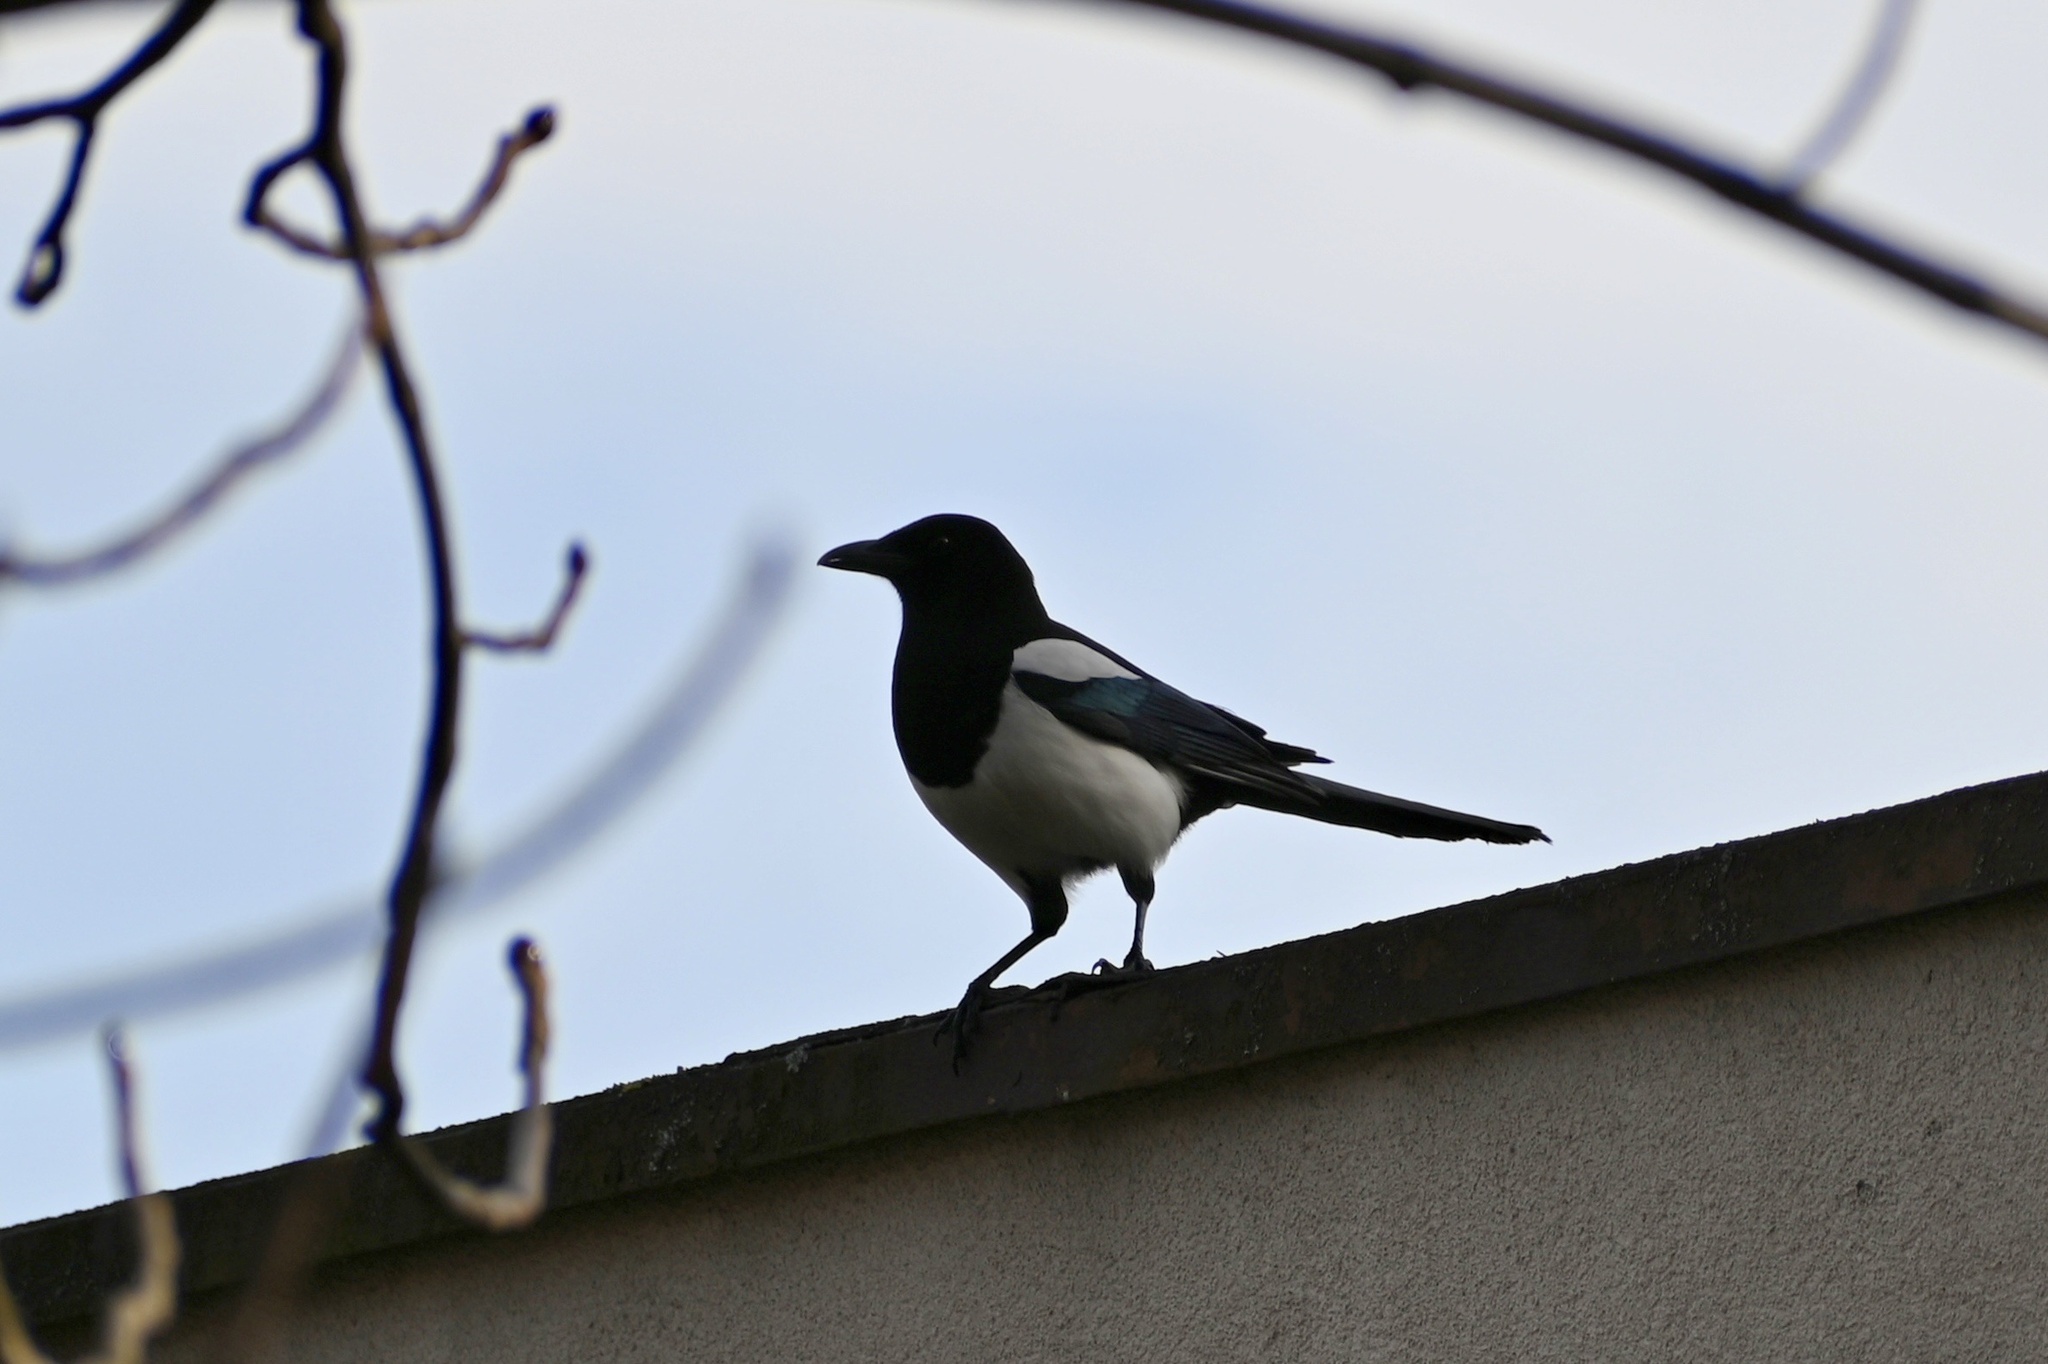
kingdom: Animalia
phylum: Chordata
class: Aves
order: Passeriformes
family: Corvidae
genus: Pica
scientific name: Pica pica
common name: Eurasian magpie
